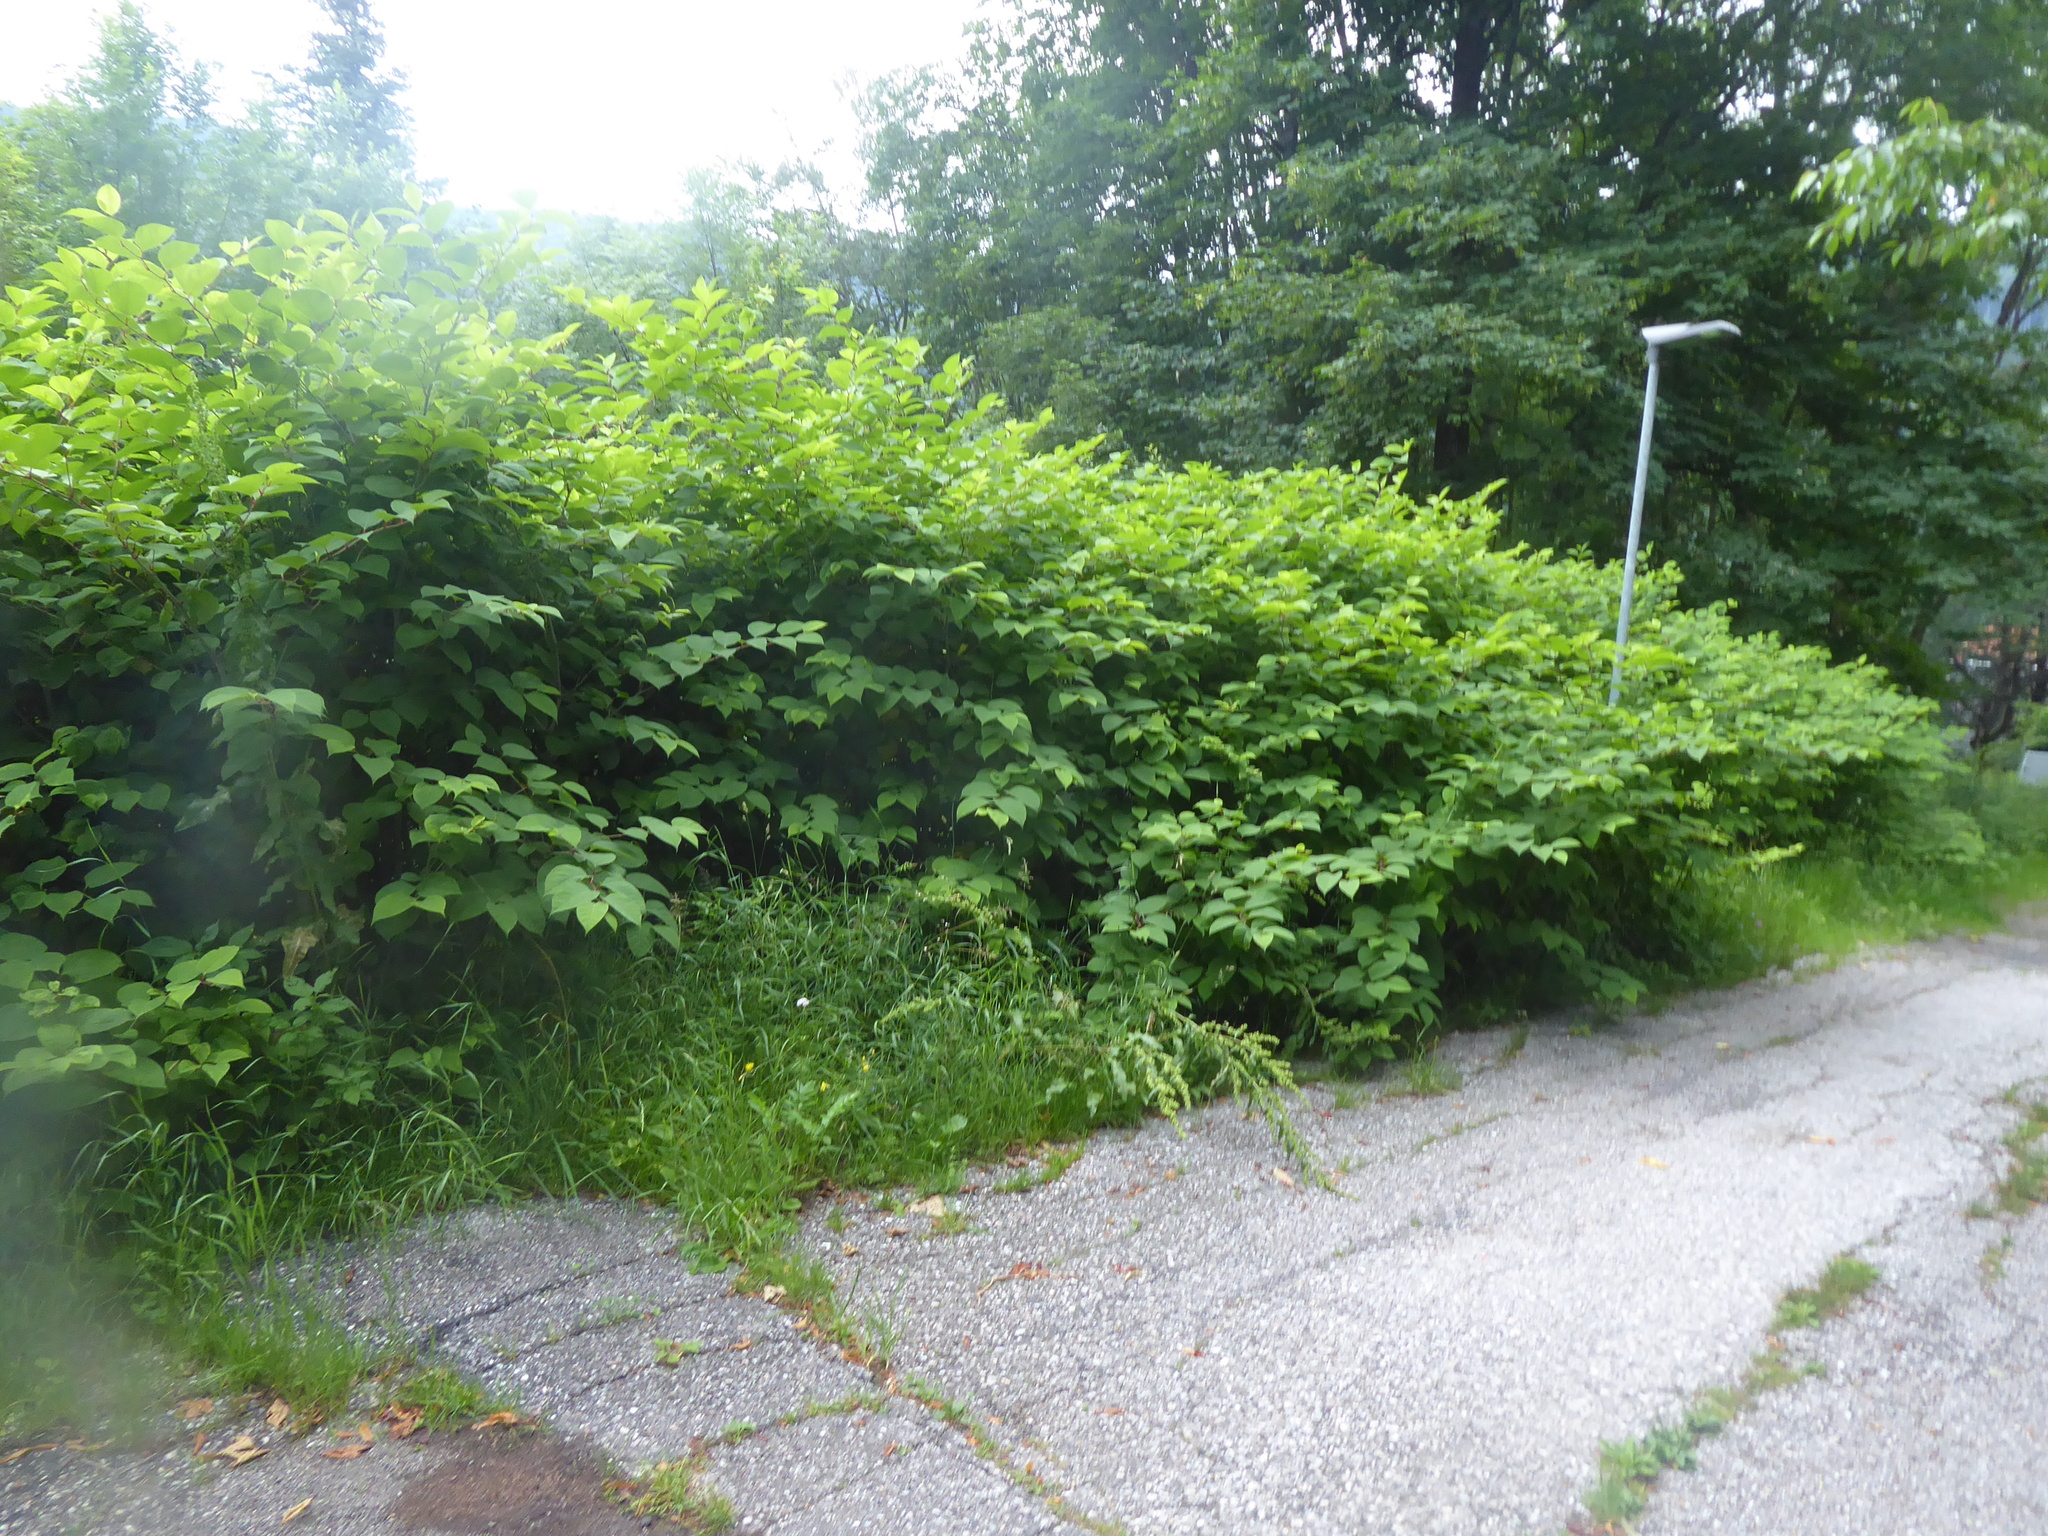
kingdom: Plantae
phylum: Tracheophyta
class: Magnoliopsida
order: Caryophyllales
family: Polygonaceae
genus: Reynoutria
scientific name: Reynoutria japonica
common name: Japanese knotweed
